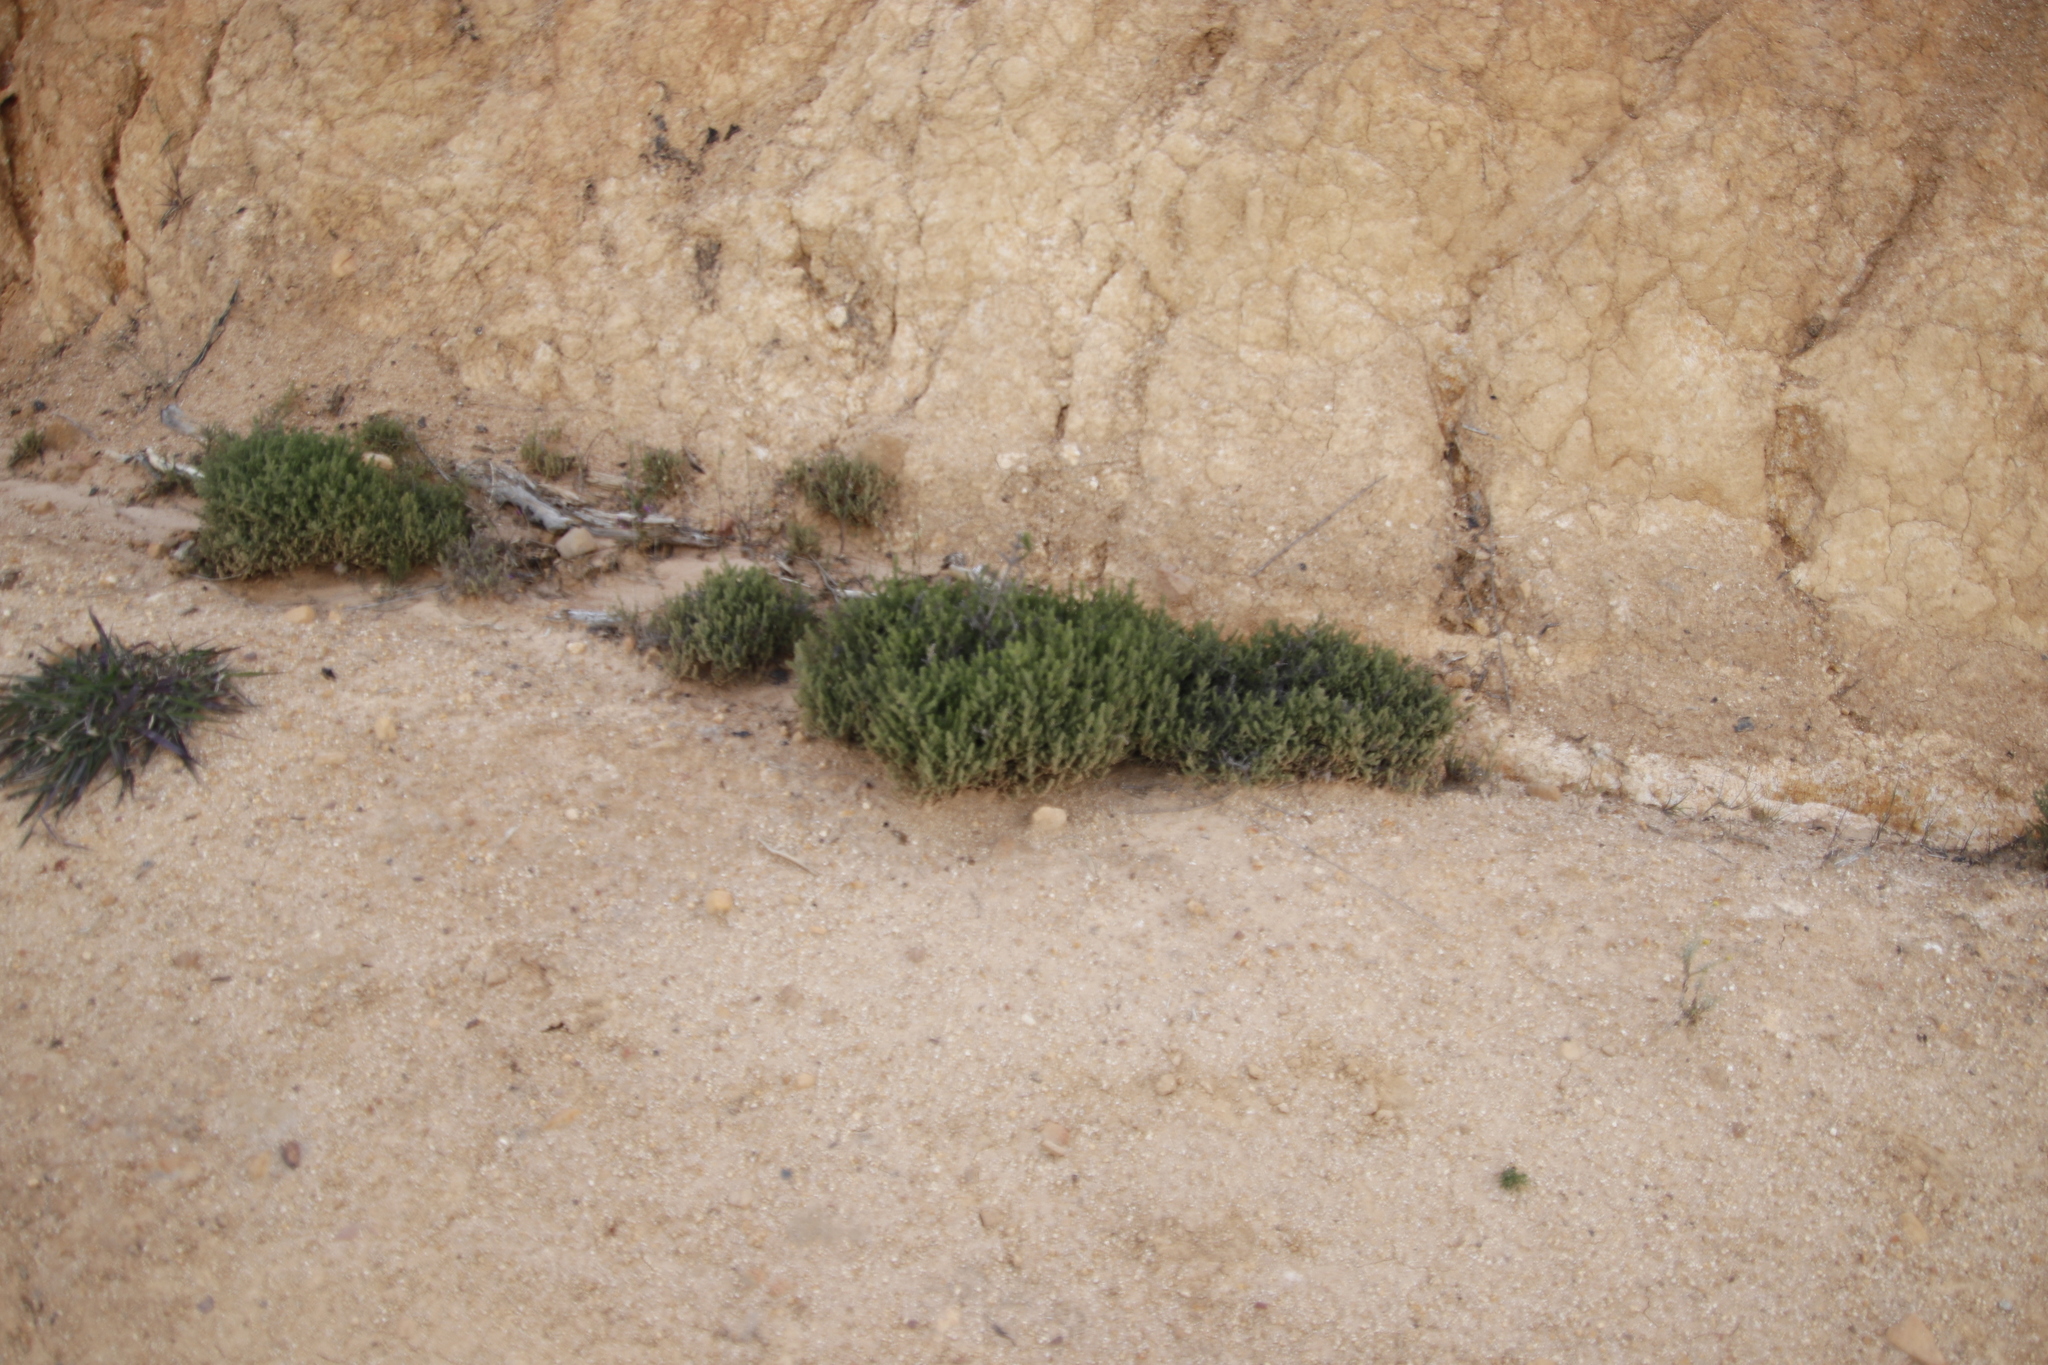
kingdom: Plantae
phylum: Tracheophyta
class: Magnoliopsida
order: Asterales
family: Asteraceae
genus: Seriphium
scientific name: Seriphium cinereum
